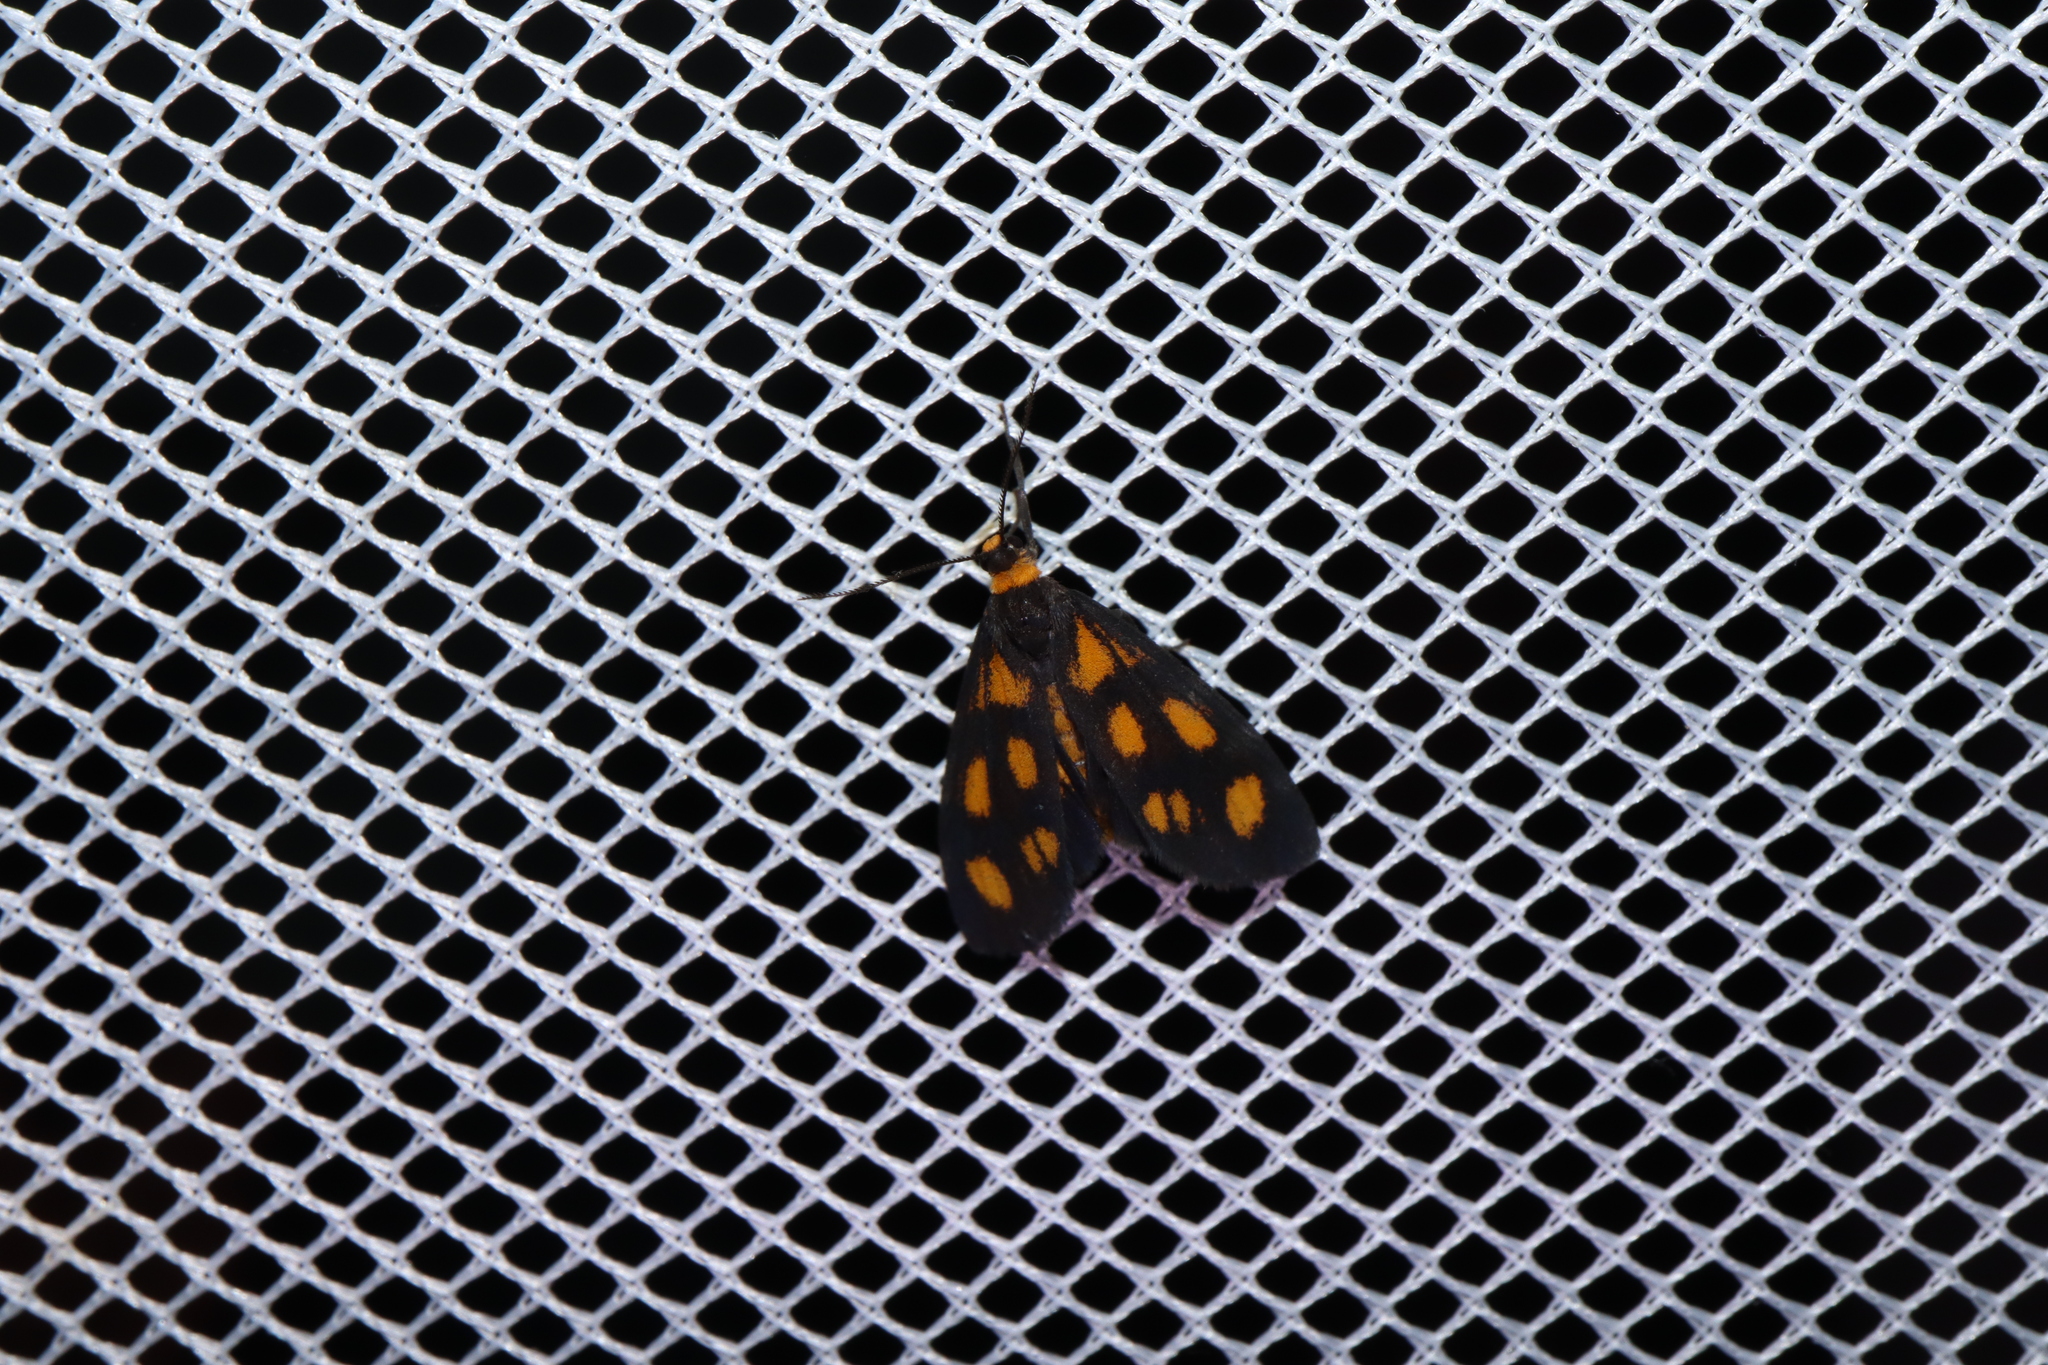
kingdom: Animalia
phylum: Arthropoda
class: Insecta
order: Lepidoptera
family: Erebidae
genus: Asura
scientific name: Asura cervicalis
